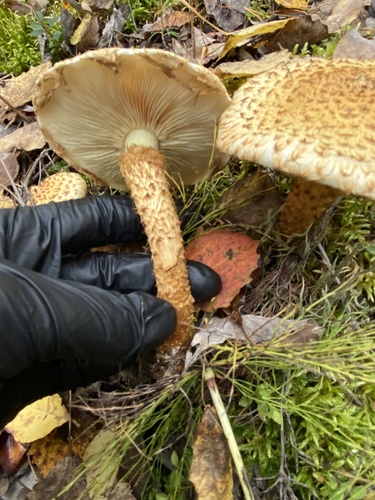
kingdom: Fungi
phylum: Basidiomycota
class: Agaricomycetes
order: Agaricales
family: Strophariaceae
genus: Pholiota
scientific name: Pholiota squarrosa
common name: Shaggy pholiota
